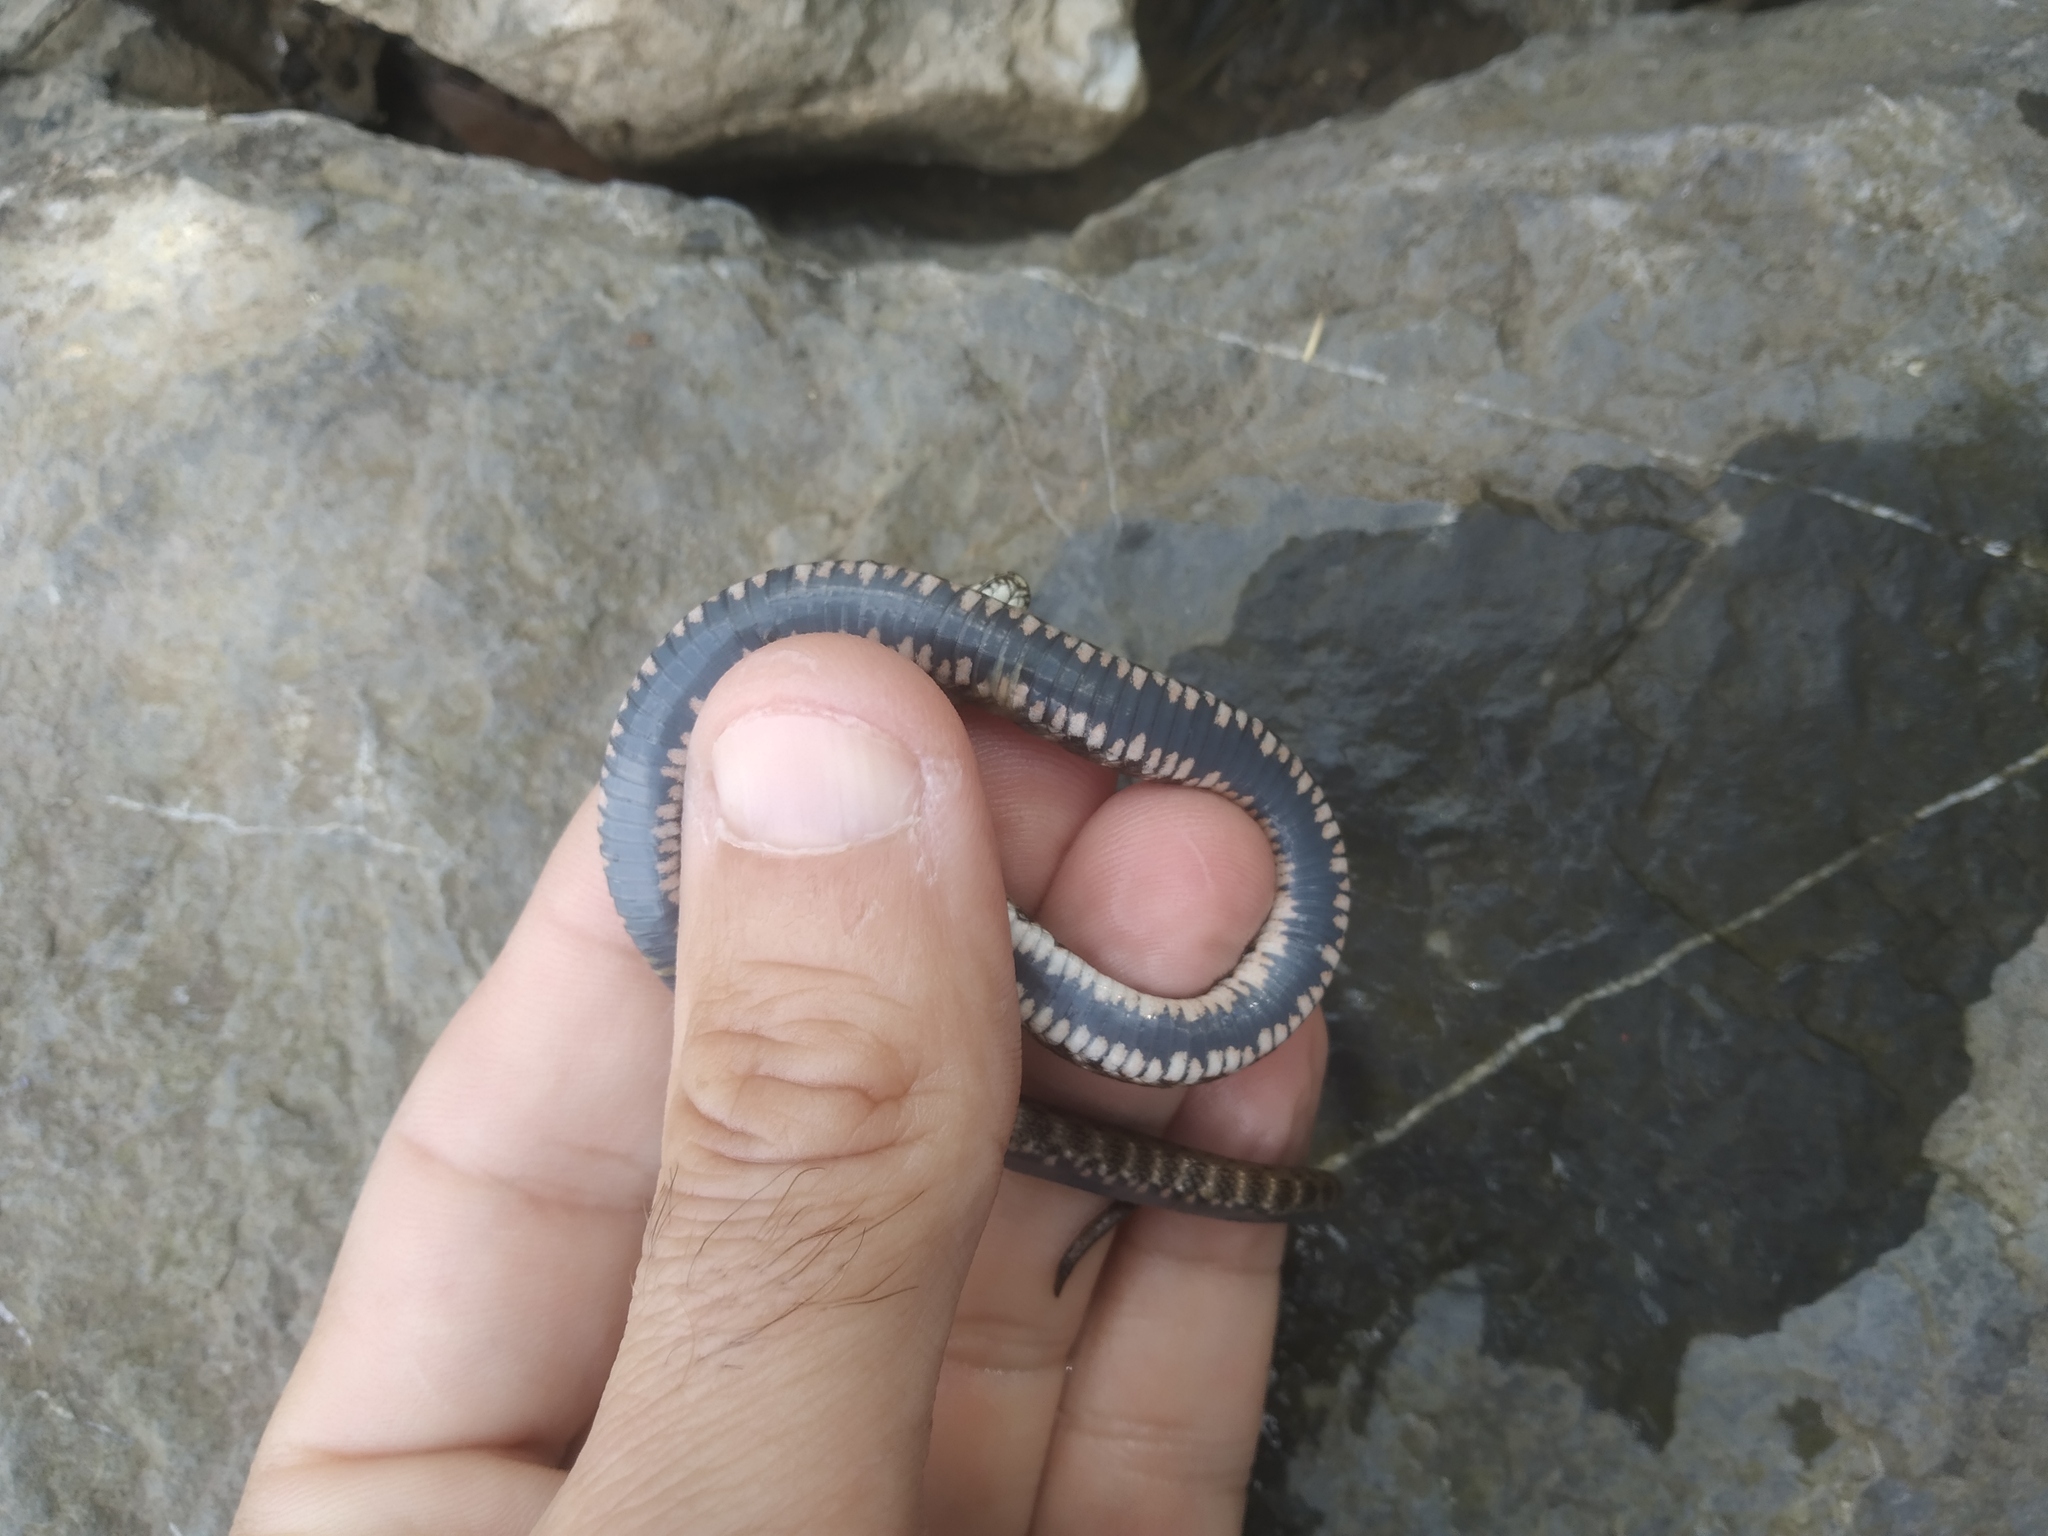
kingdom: Animalia
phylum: Chordata
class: Squamata
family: Colubridae
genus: Natrix
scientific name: Natrix tessellata
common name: Dice snake
